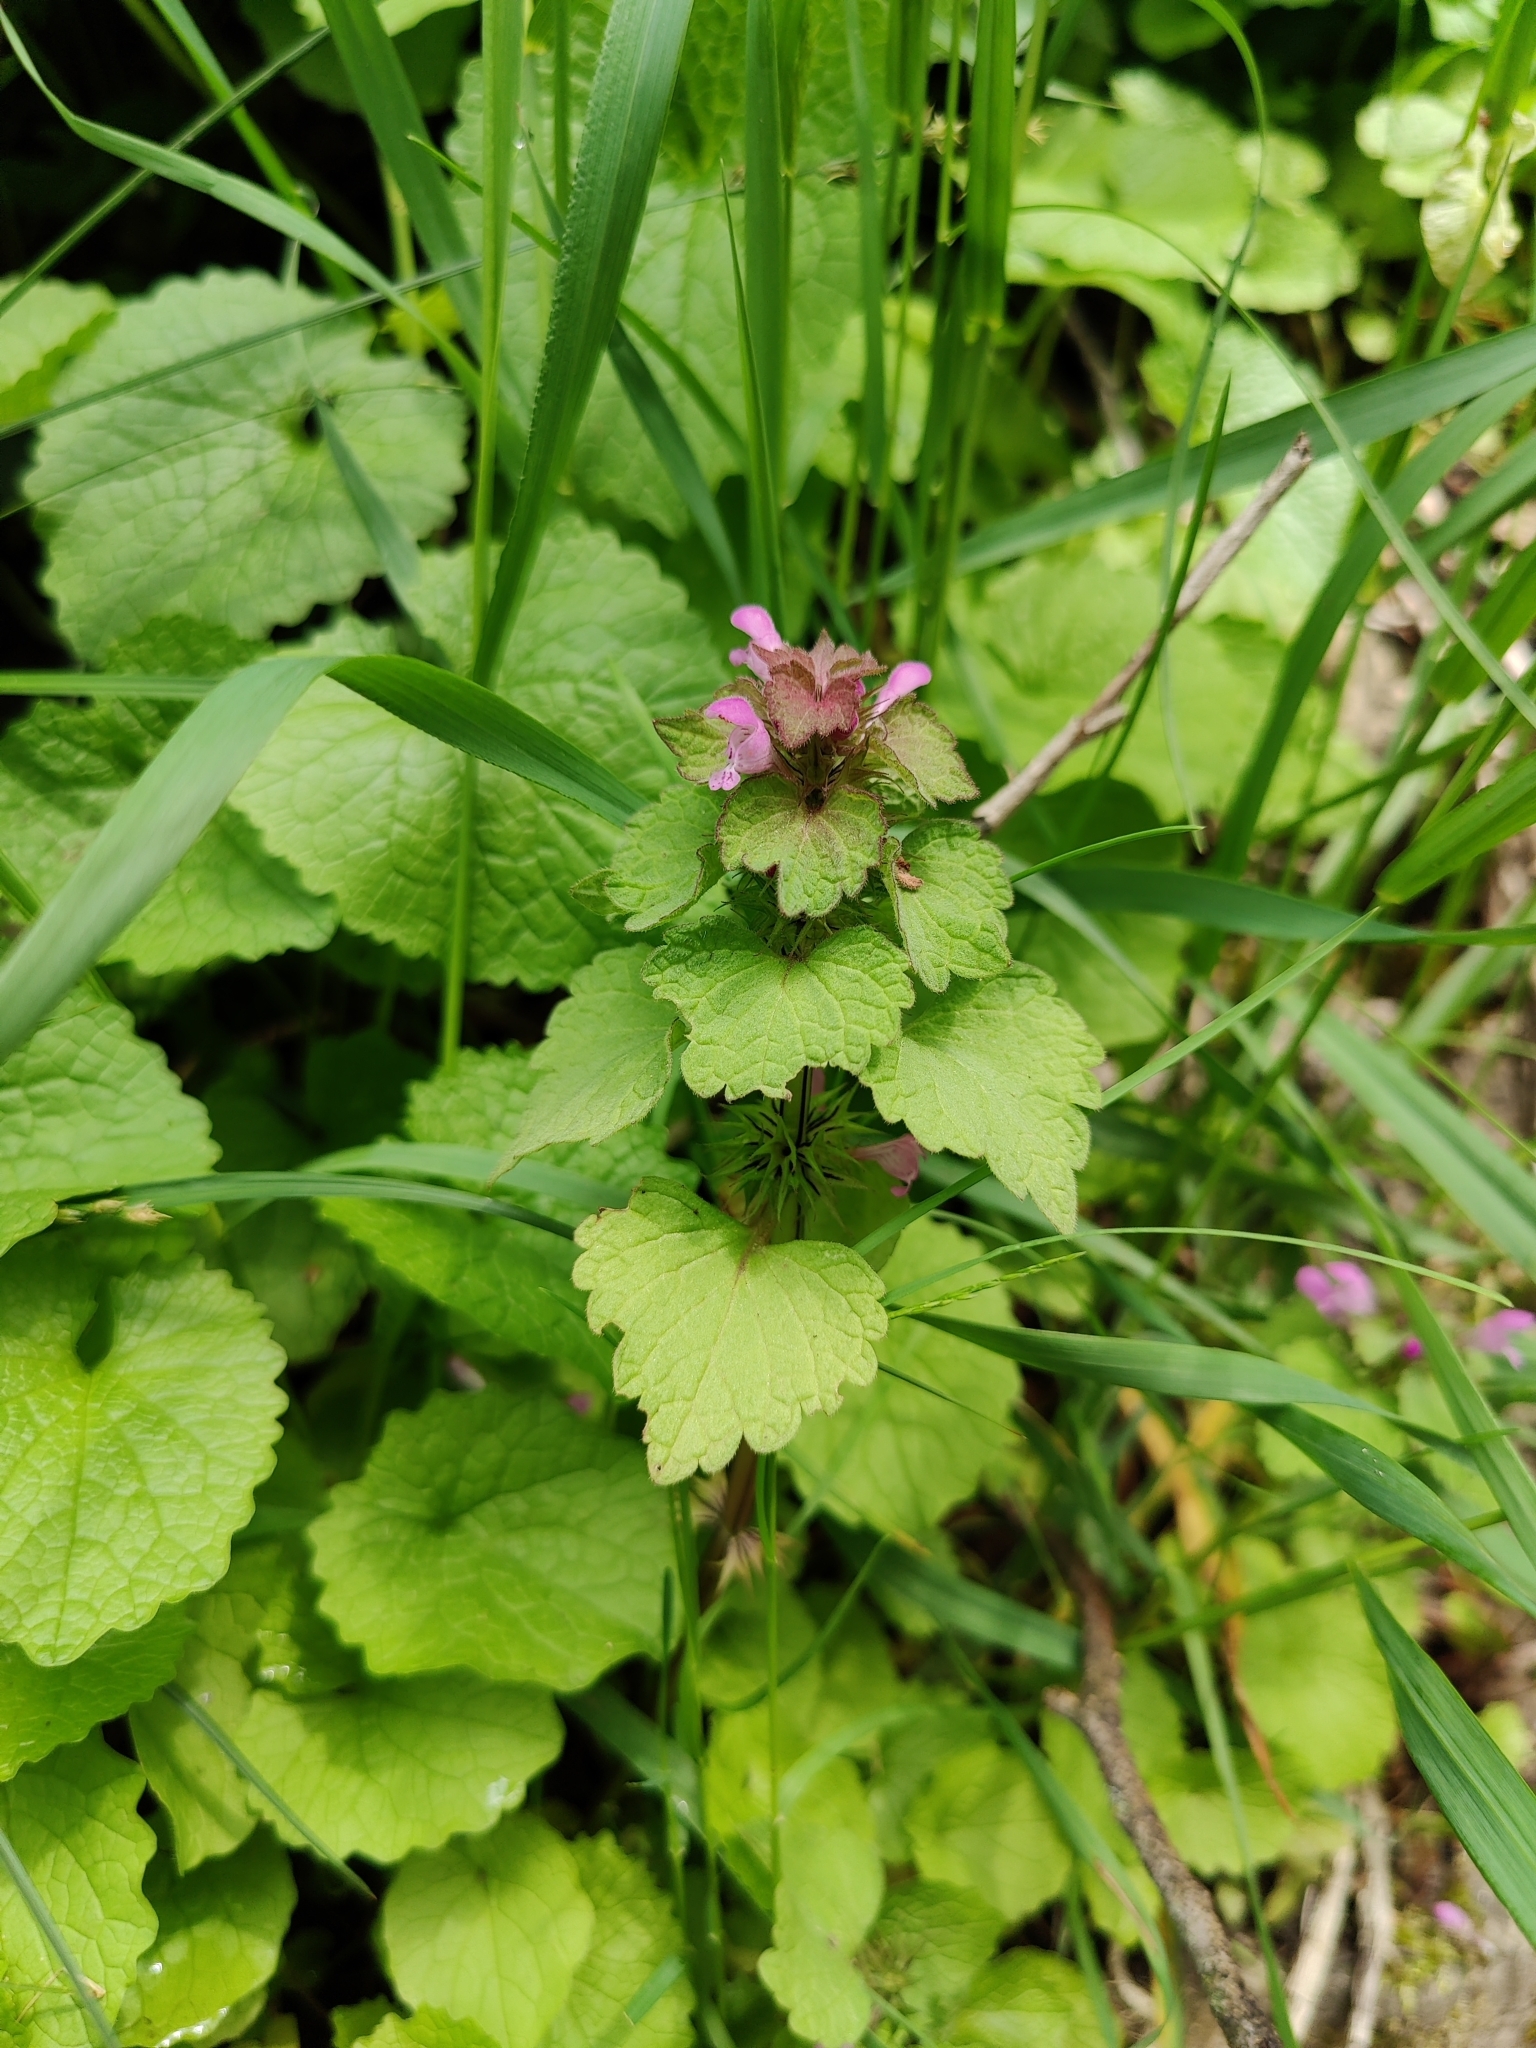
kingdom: Plantae
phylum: Tracheophyta
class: Magnoliopsida
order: Lamiales
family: Lamiaceae
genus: Lamium
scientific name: Lamium purpureum
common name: Red dead-nettle
